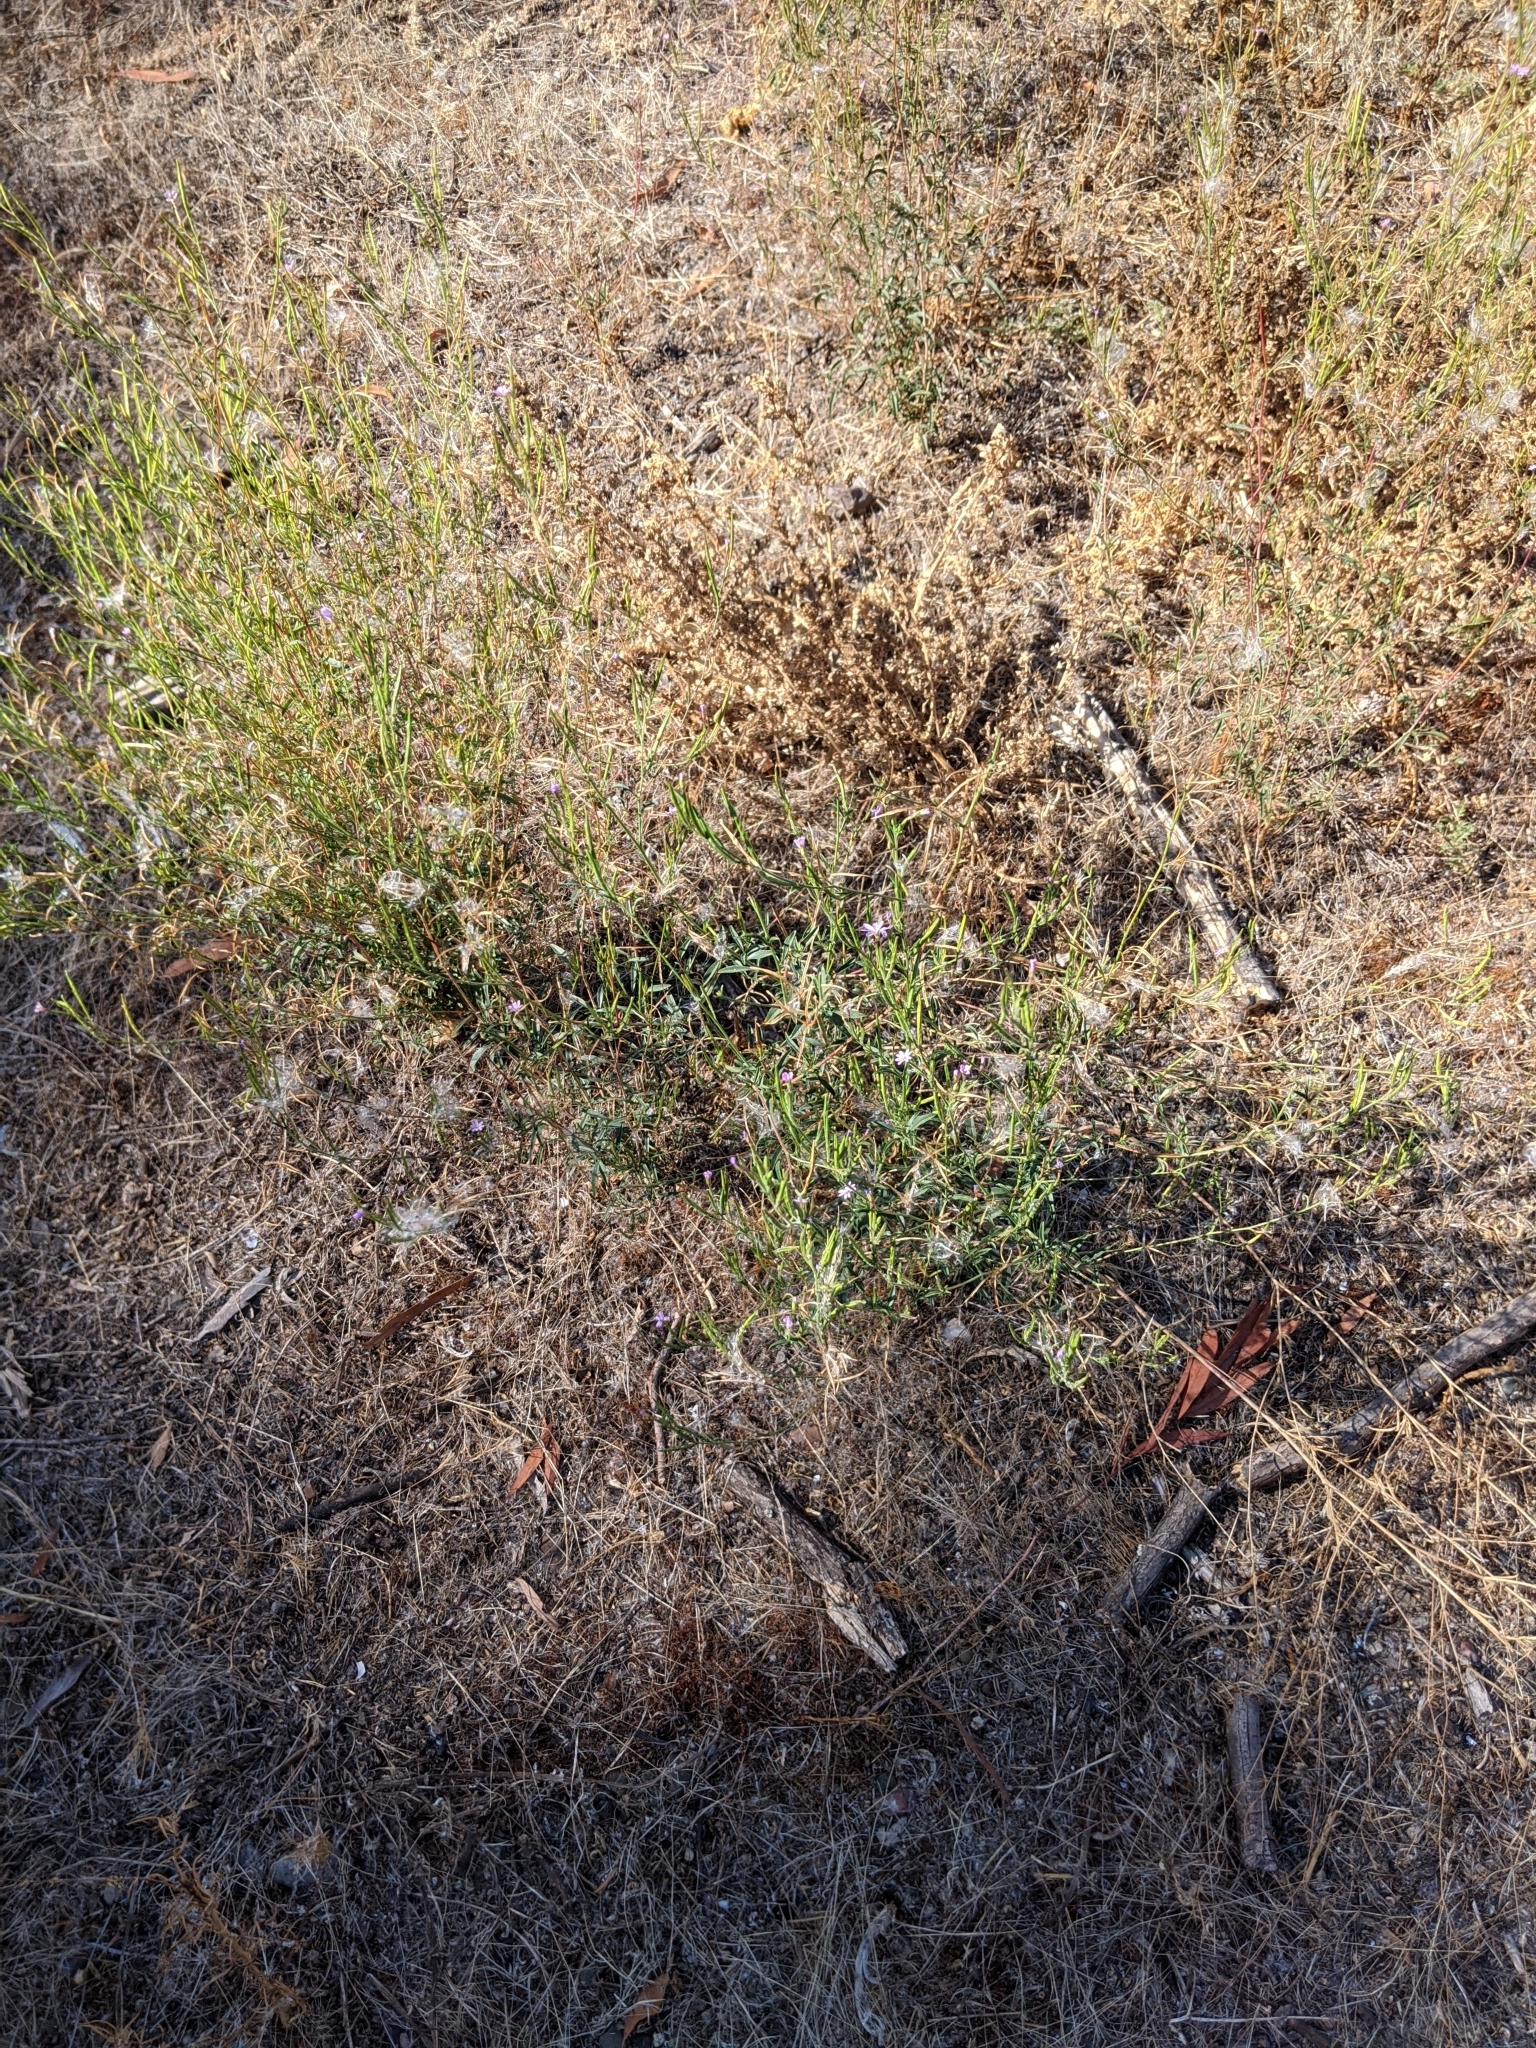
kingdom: Plantae
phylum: Tracheophyta
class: Magnoliopsida
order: Myrtales
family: Onagraceae
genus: Epilobium
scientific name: Epilobium brachycarpum
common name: Annual willowherb
